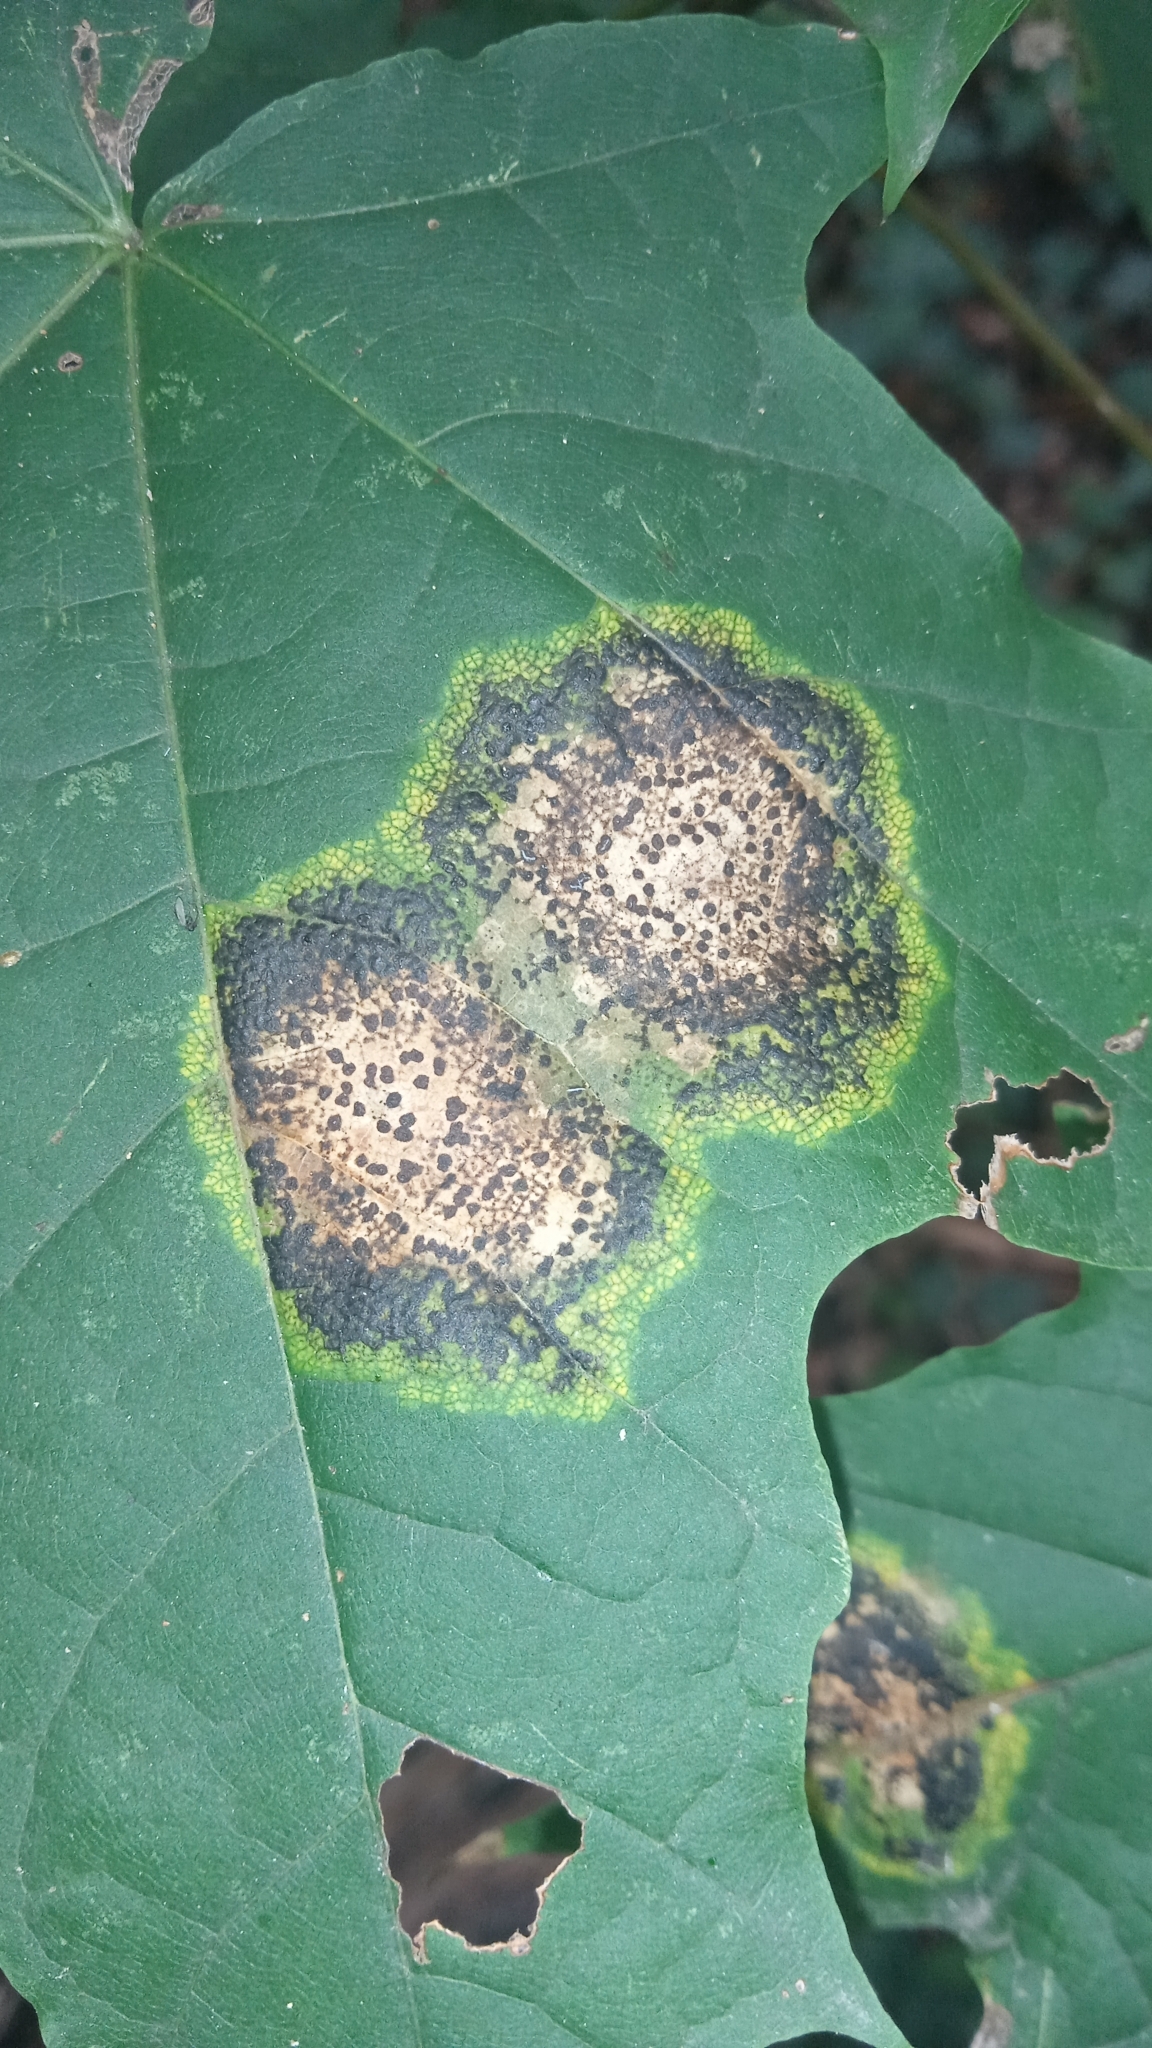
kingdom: Fungi
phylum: Ascomycota
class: Leotiomycetes
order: Rhytismatales
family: Rhytismataceae
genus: Rhytisma
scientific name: Rhytisma acerinum
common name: European tar spot
